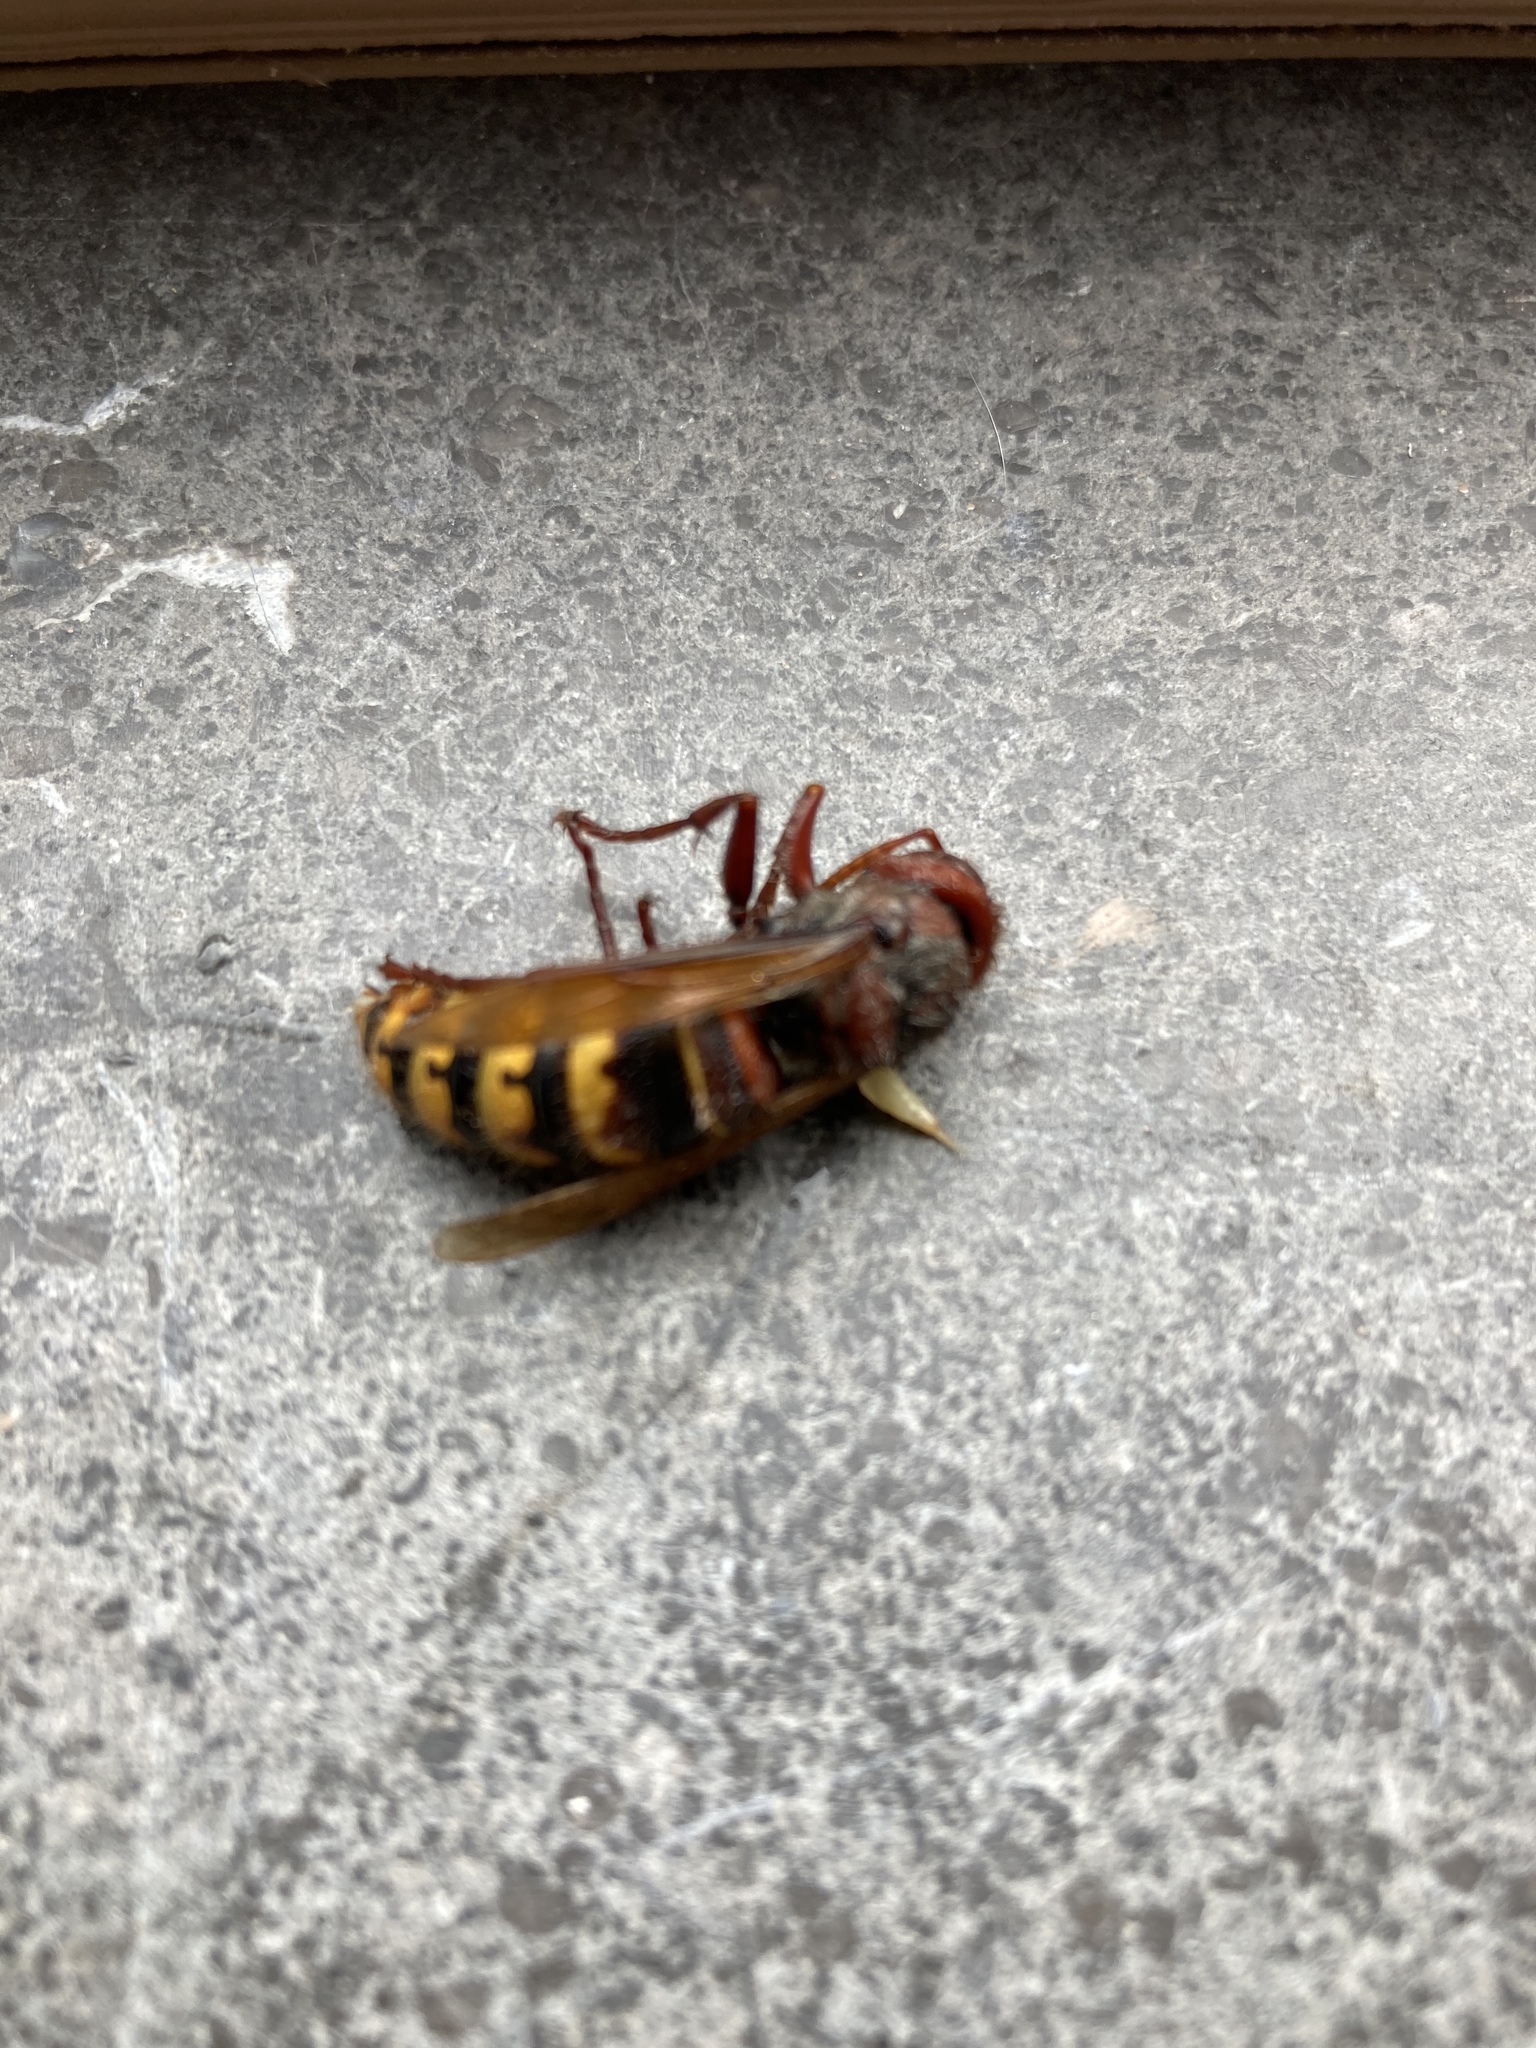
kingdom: Animalia
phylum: Arthropoda
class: Insecta
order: Hymenoptera
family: Vespidae
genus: Vespa
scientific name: Vespa crabro
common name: Hornet
